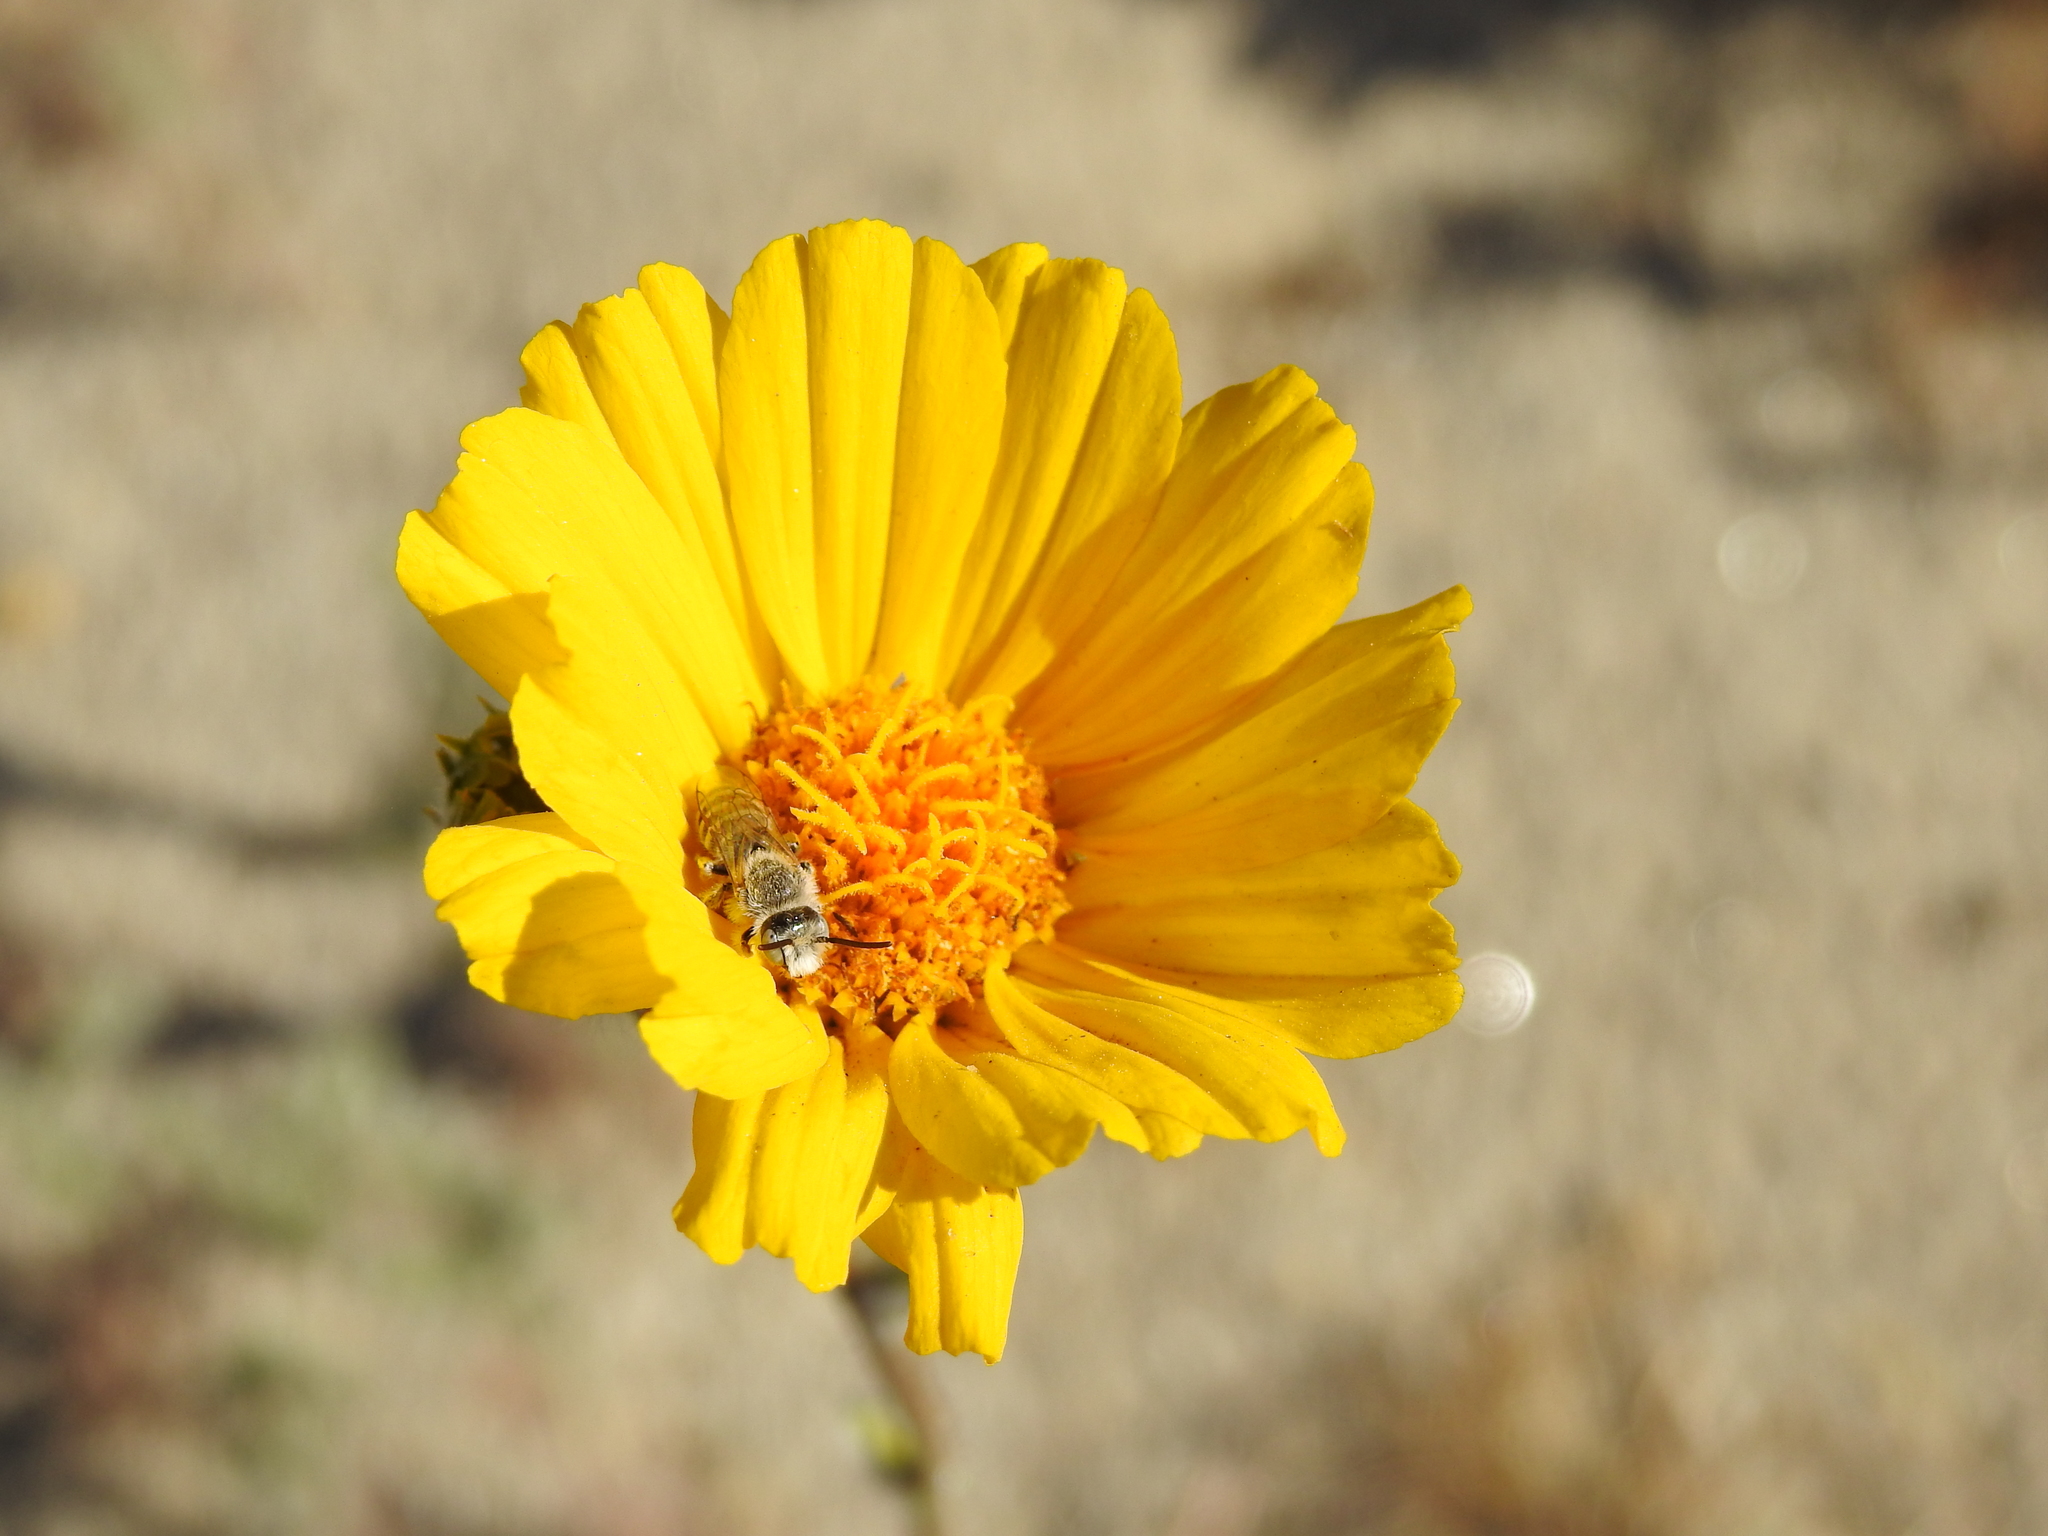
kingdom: Plantae
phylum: Tracheophyta
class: Magnoliopsida
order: Asterales
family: Asteraceae
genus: Geraea
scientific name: Geraea canescens
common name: Desert-gold
